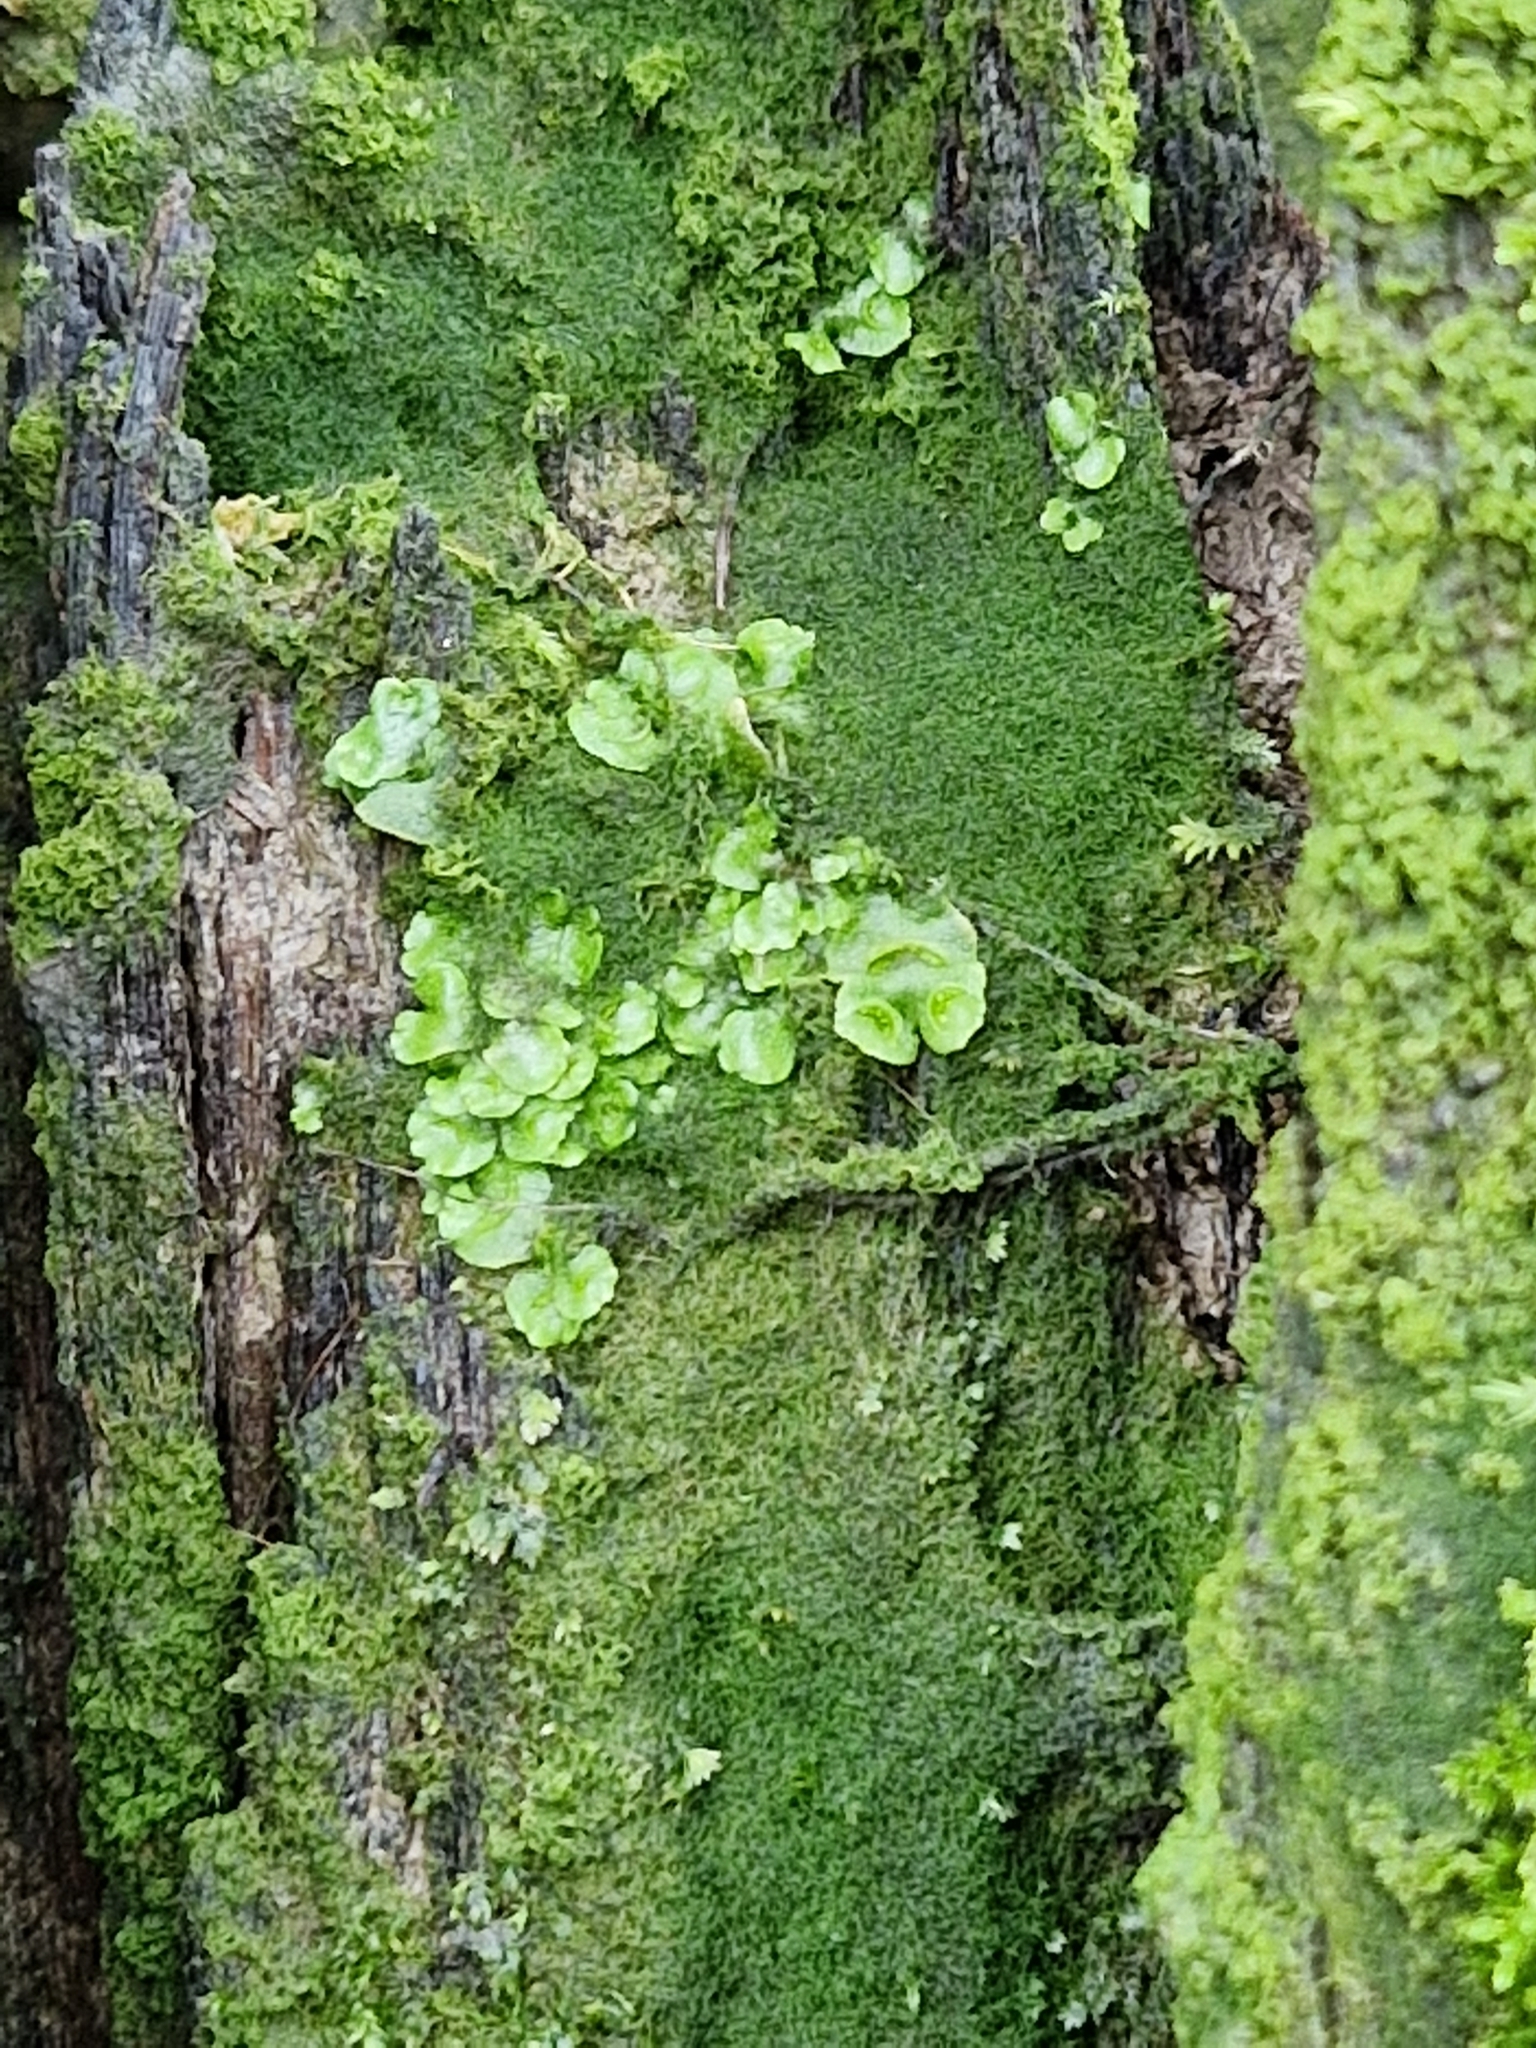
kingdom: Plantae
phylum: Marchantiophyta
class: Marchantiopsida
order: Lunulariales
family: Lunulariaceae
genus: Lunularia
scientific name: Lunularia cruciata
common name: Crescent-cup liverwort
